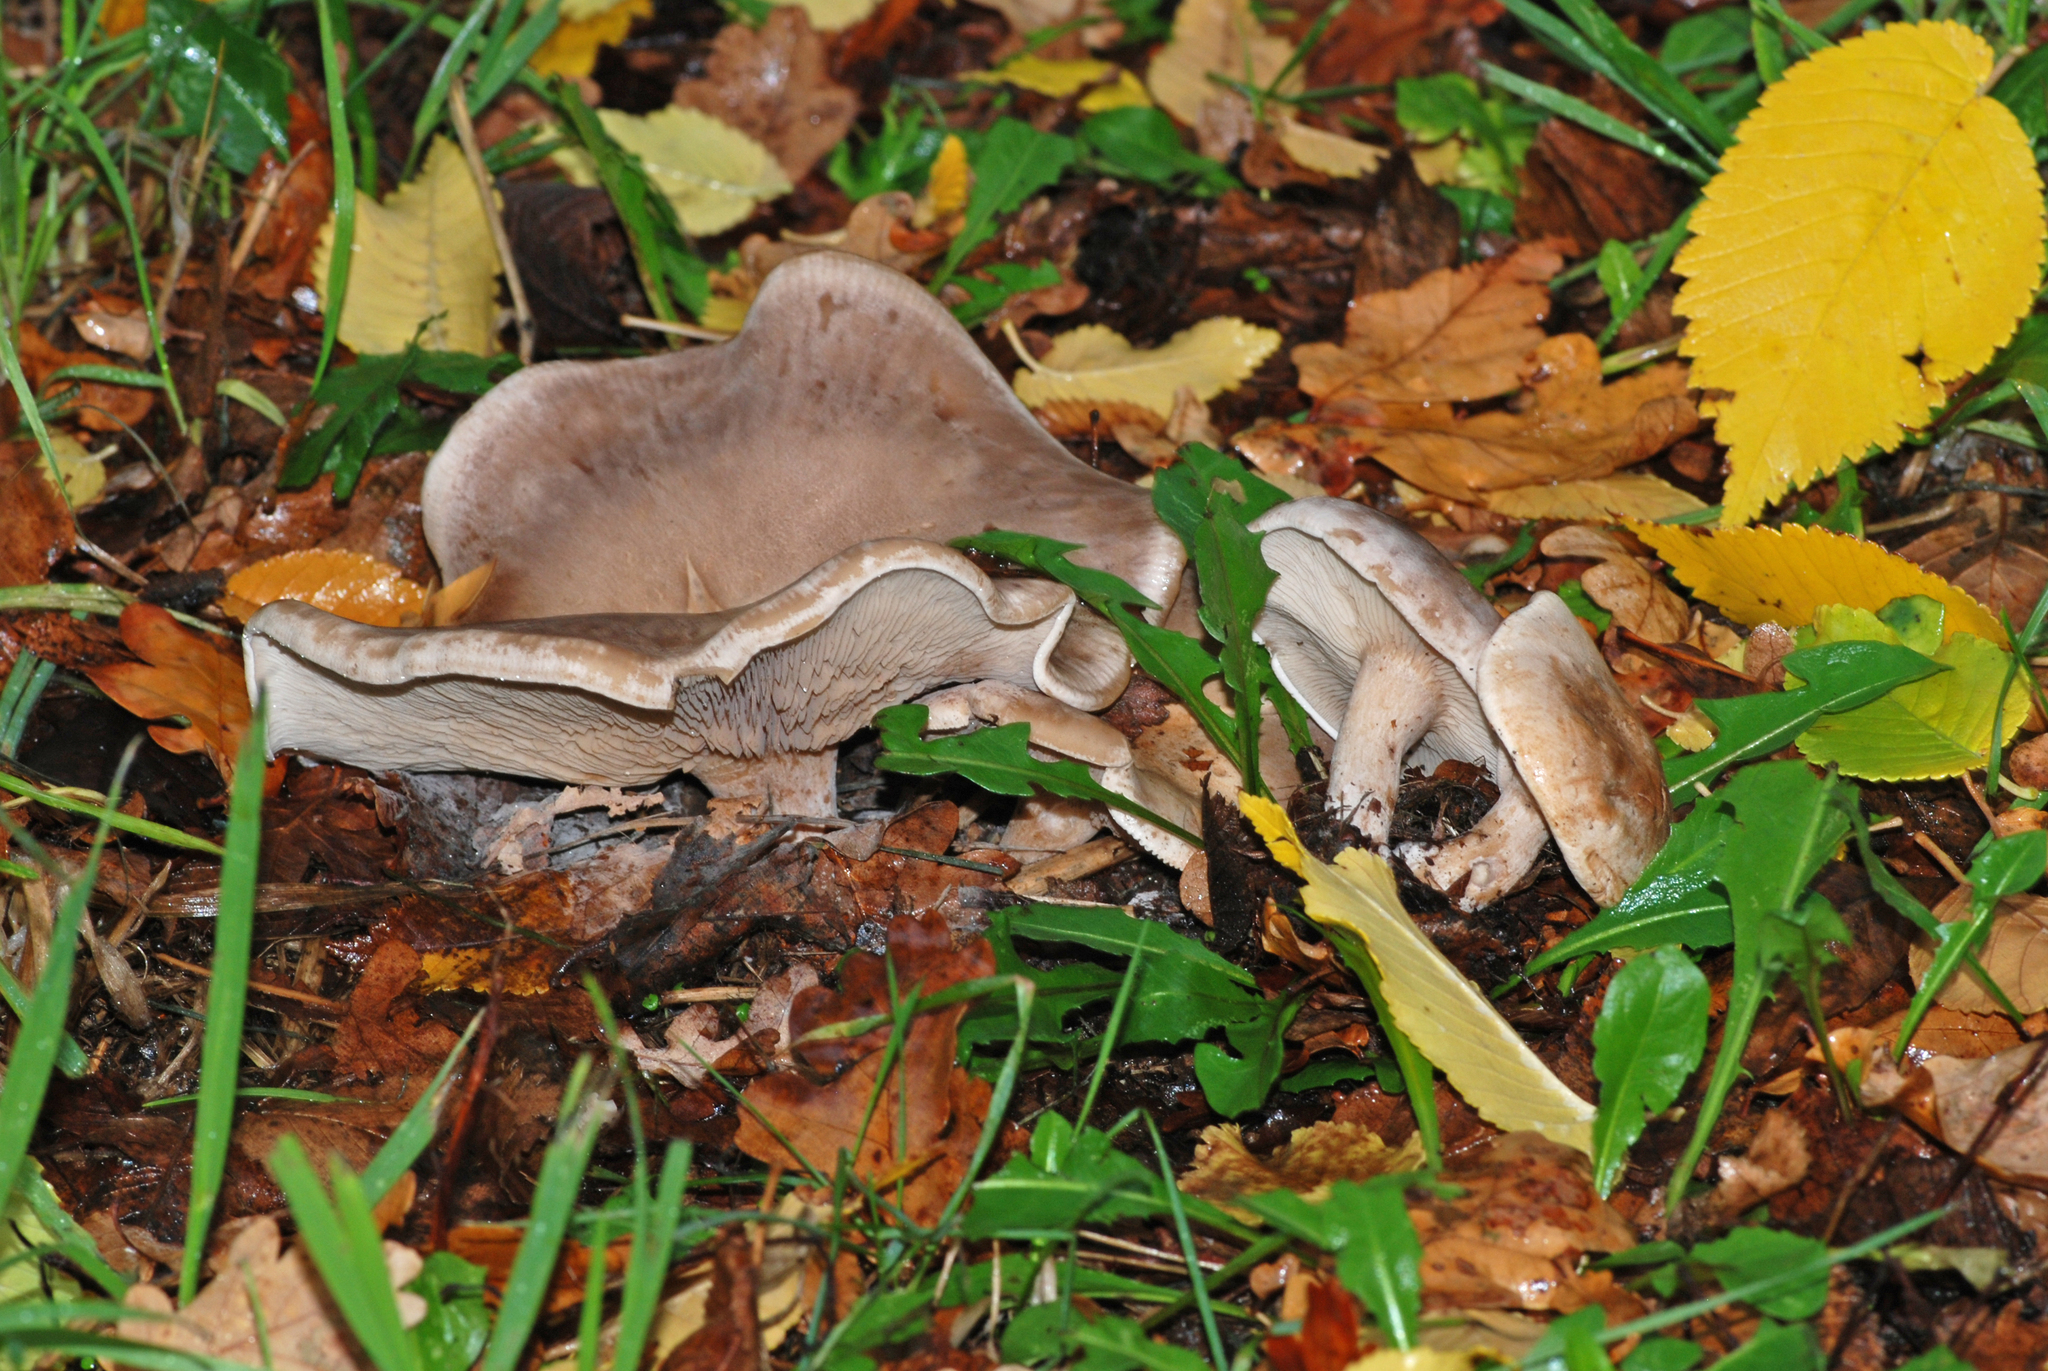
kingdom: Fungi
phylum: Basidiomycota
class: Agaricomycetes
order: Agaricales
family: Tricholomataceae
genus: Lepista
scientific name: Lepista luscina
